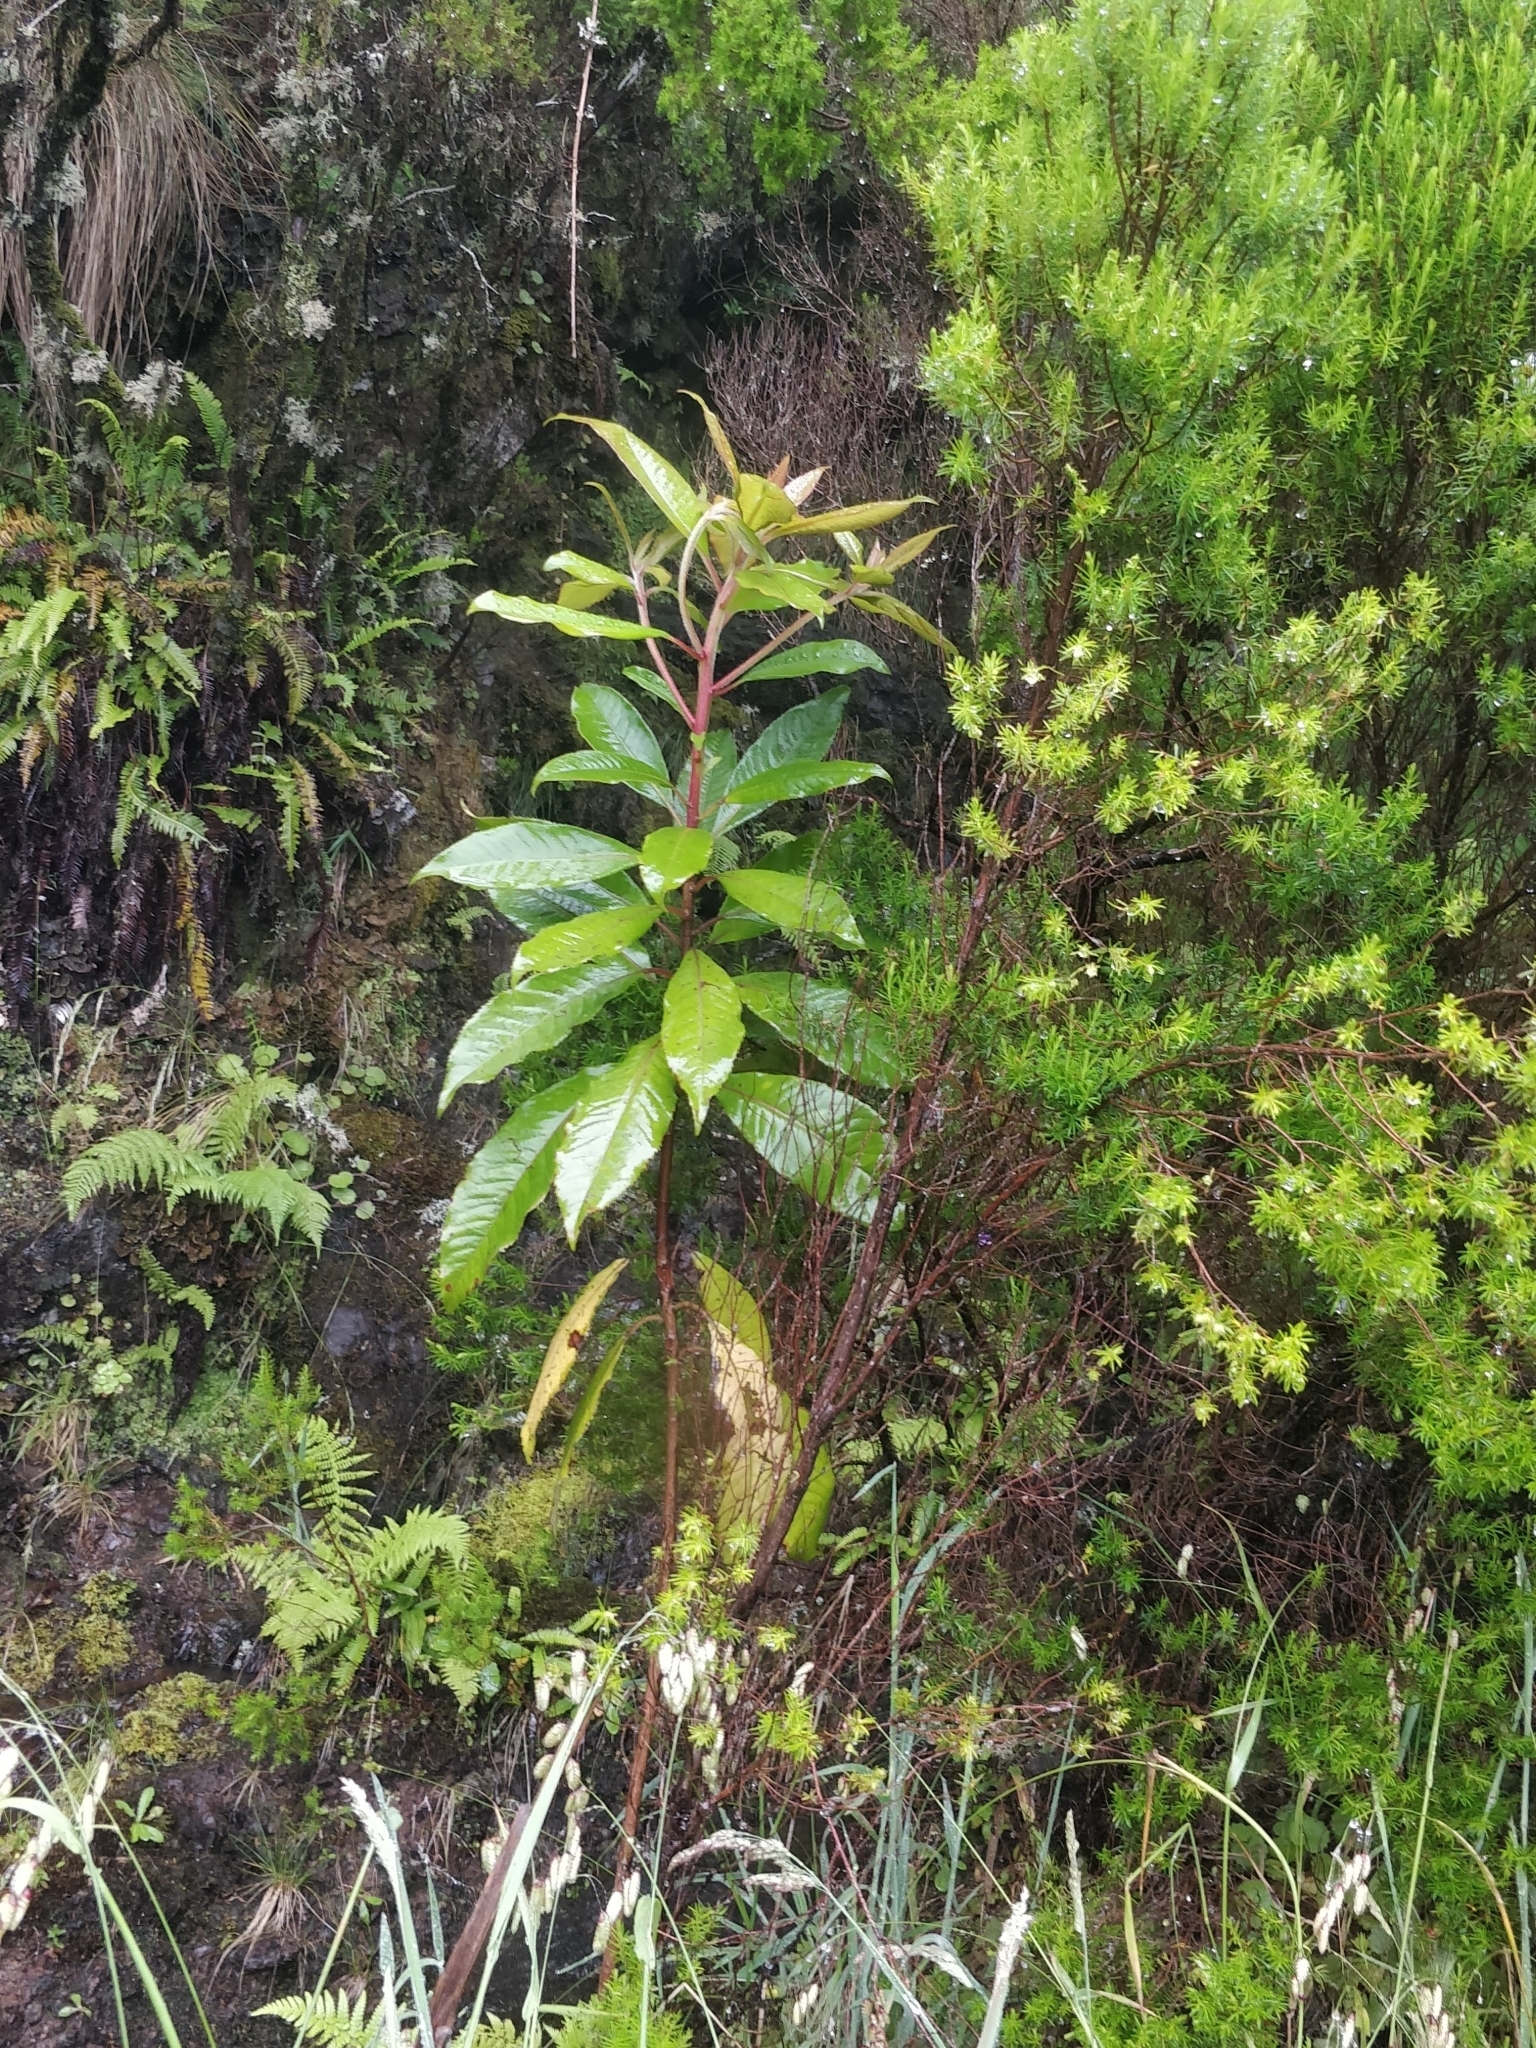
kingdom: Plantae
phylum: Tracheophyta
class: Magnoliopsida
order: Ericales
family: Clethraceae
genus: Clethra
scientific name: Clethra arborea
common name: Lily-of-the-valley-tree
